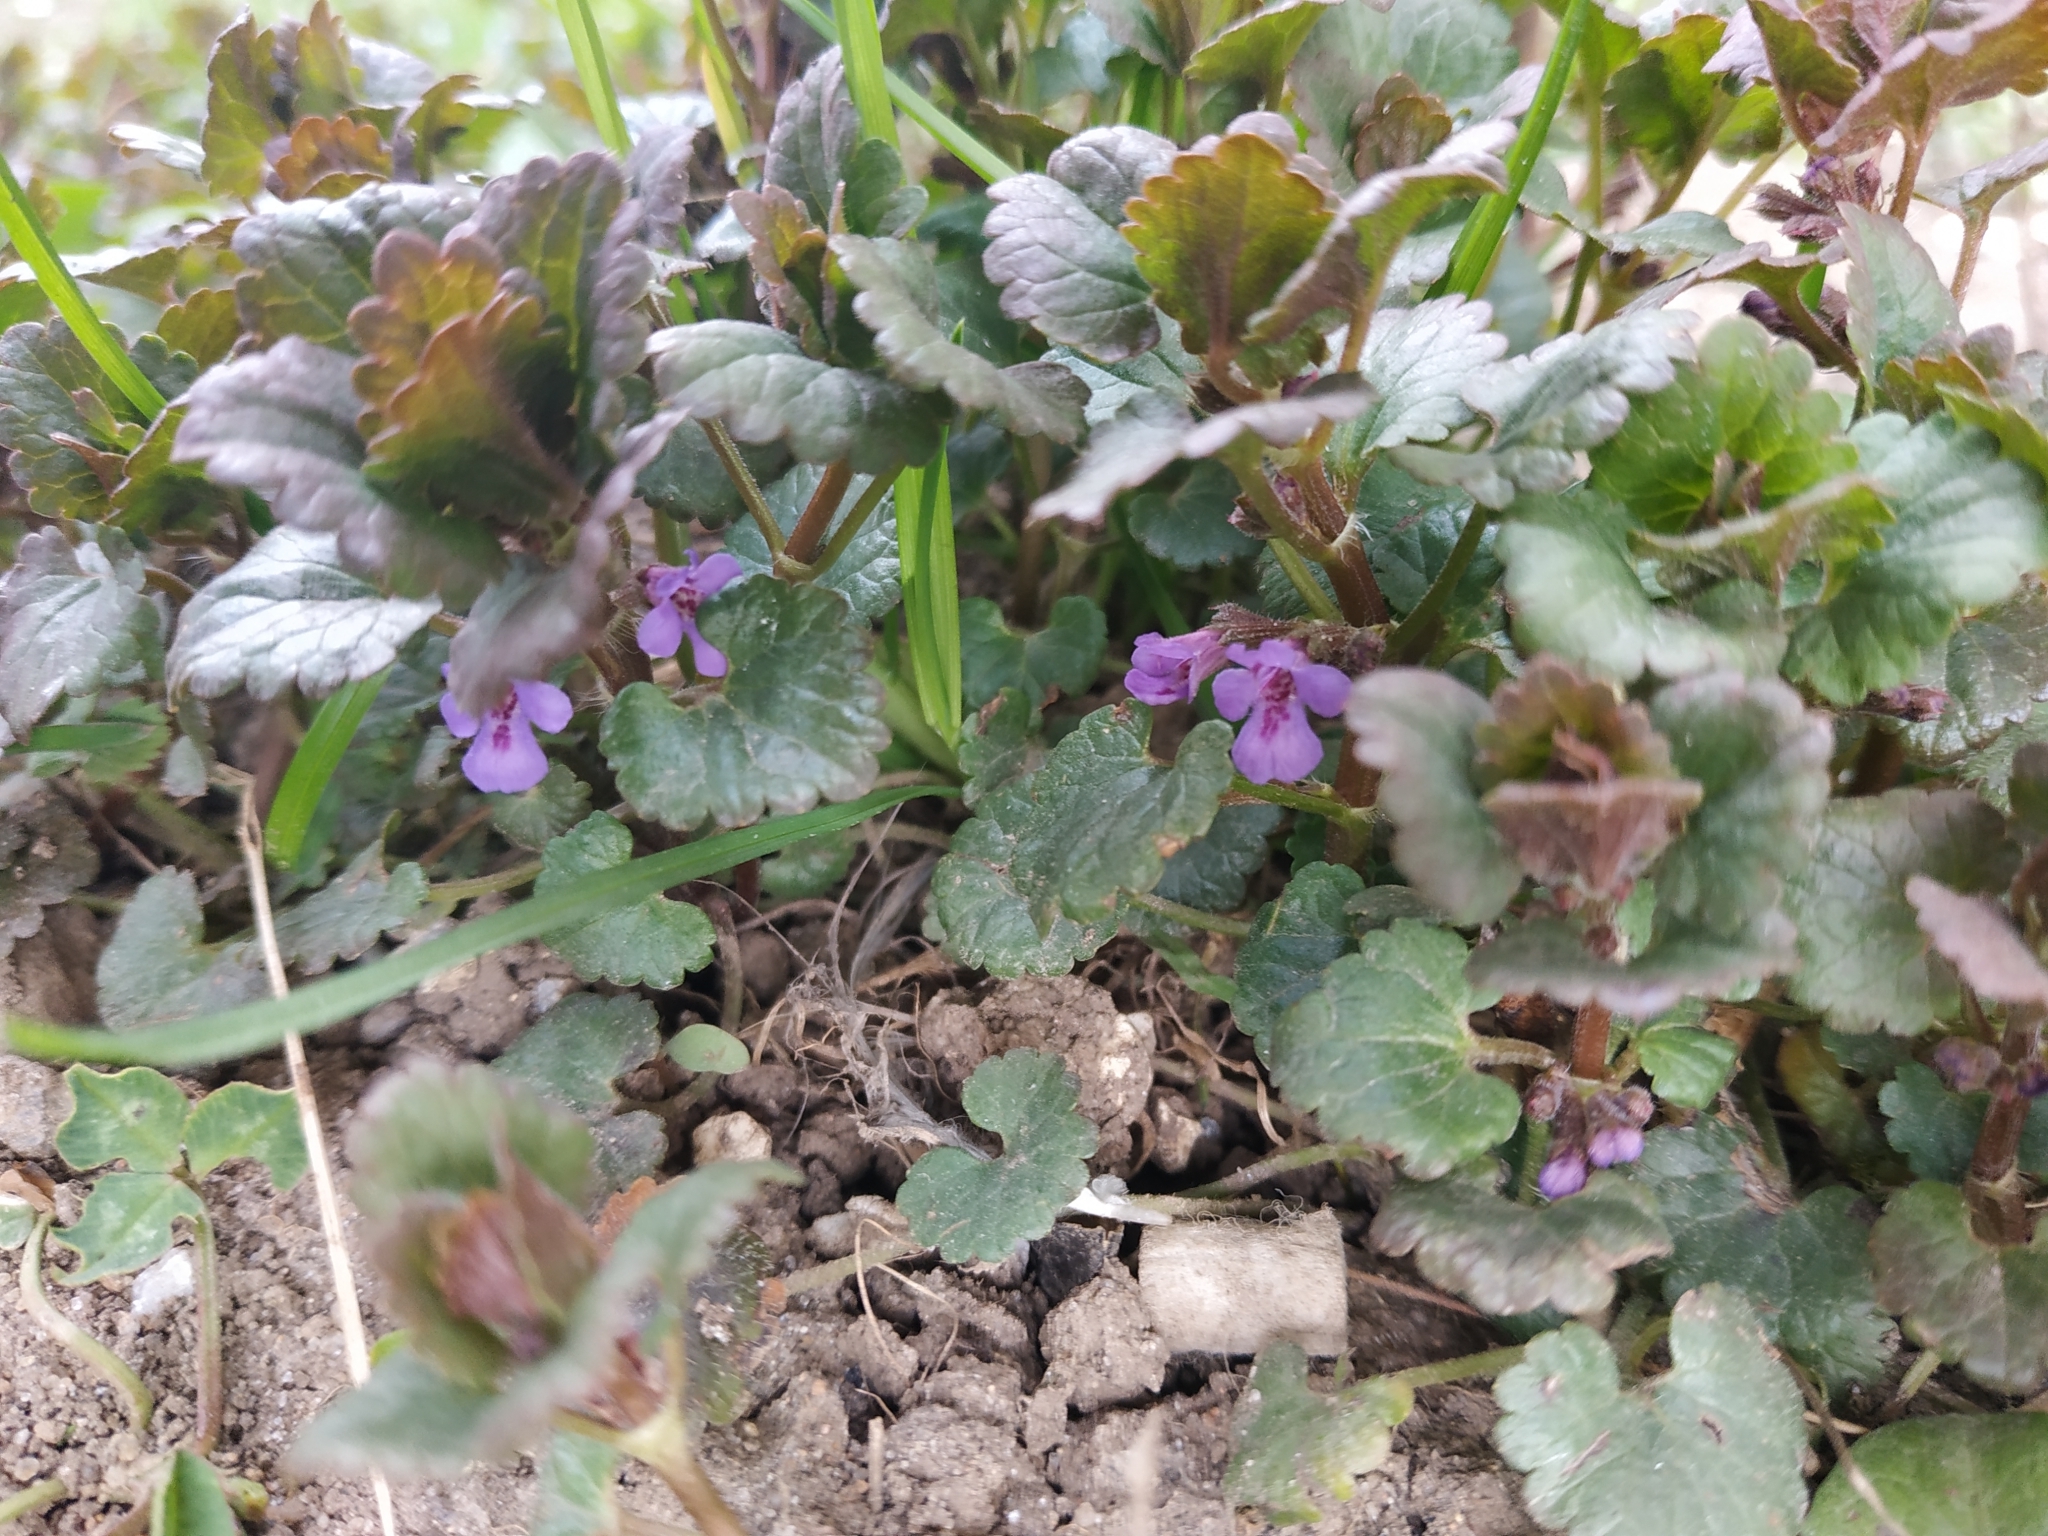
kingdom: Plantae
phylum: Tracheophyta
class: Magnoliopsida
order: Lamiales
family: Lamiaceae
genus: Glechoma
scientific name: Glechoma hederacea
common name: Ground ivy
